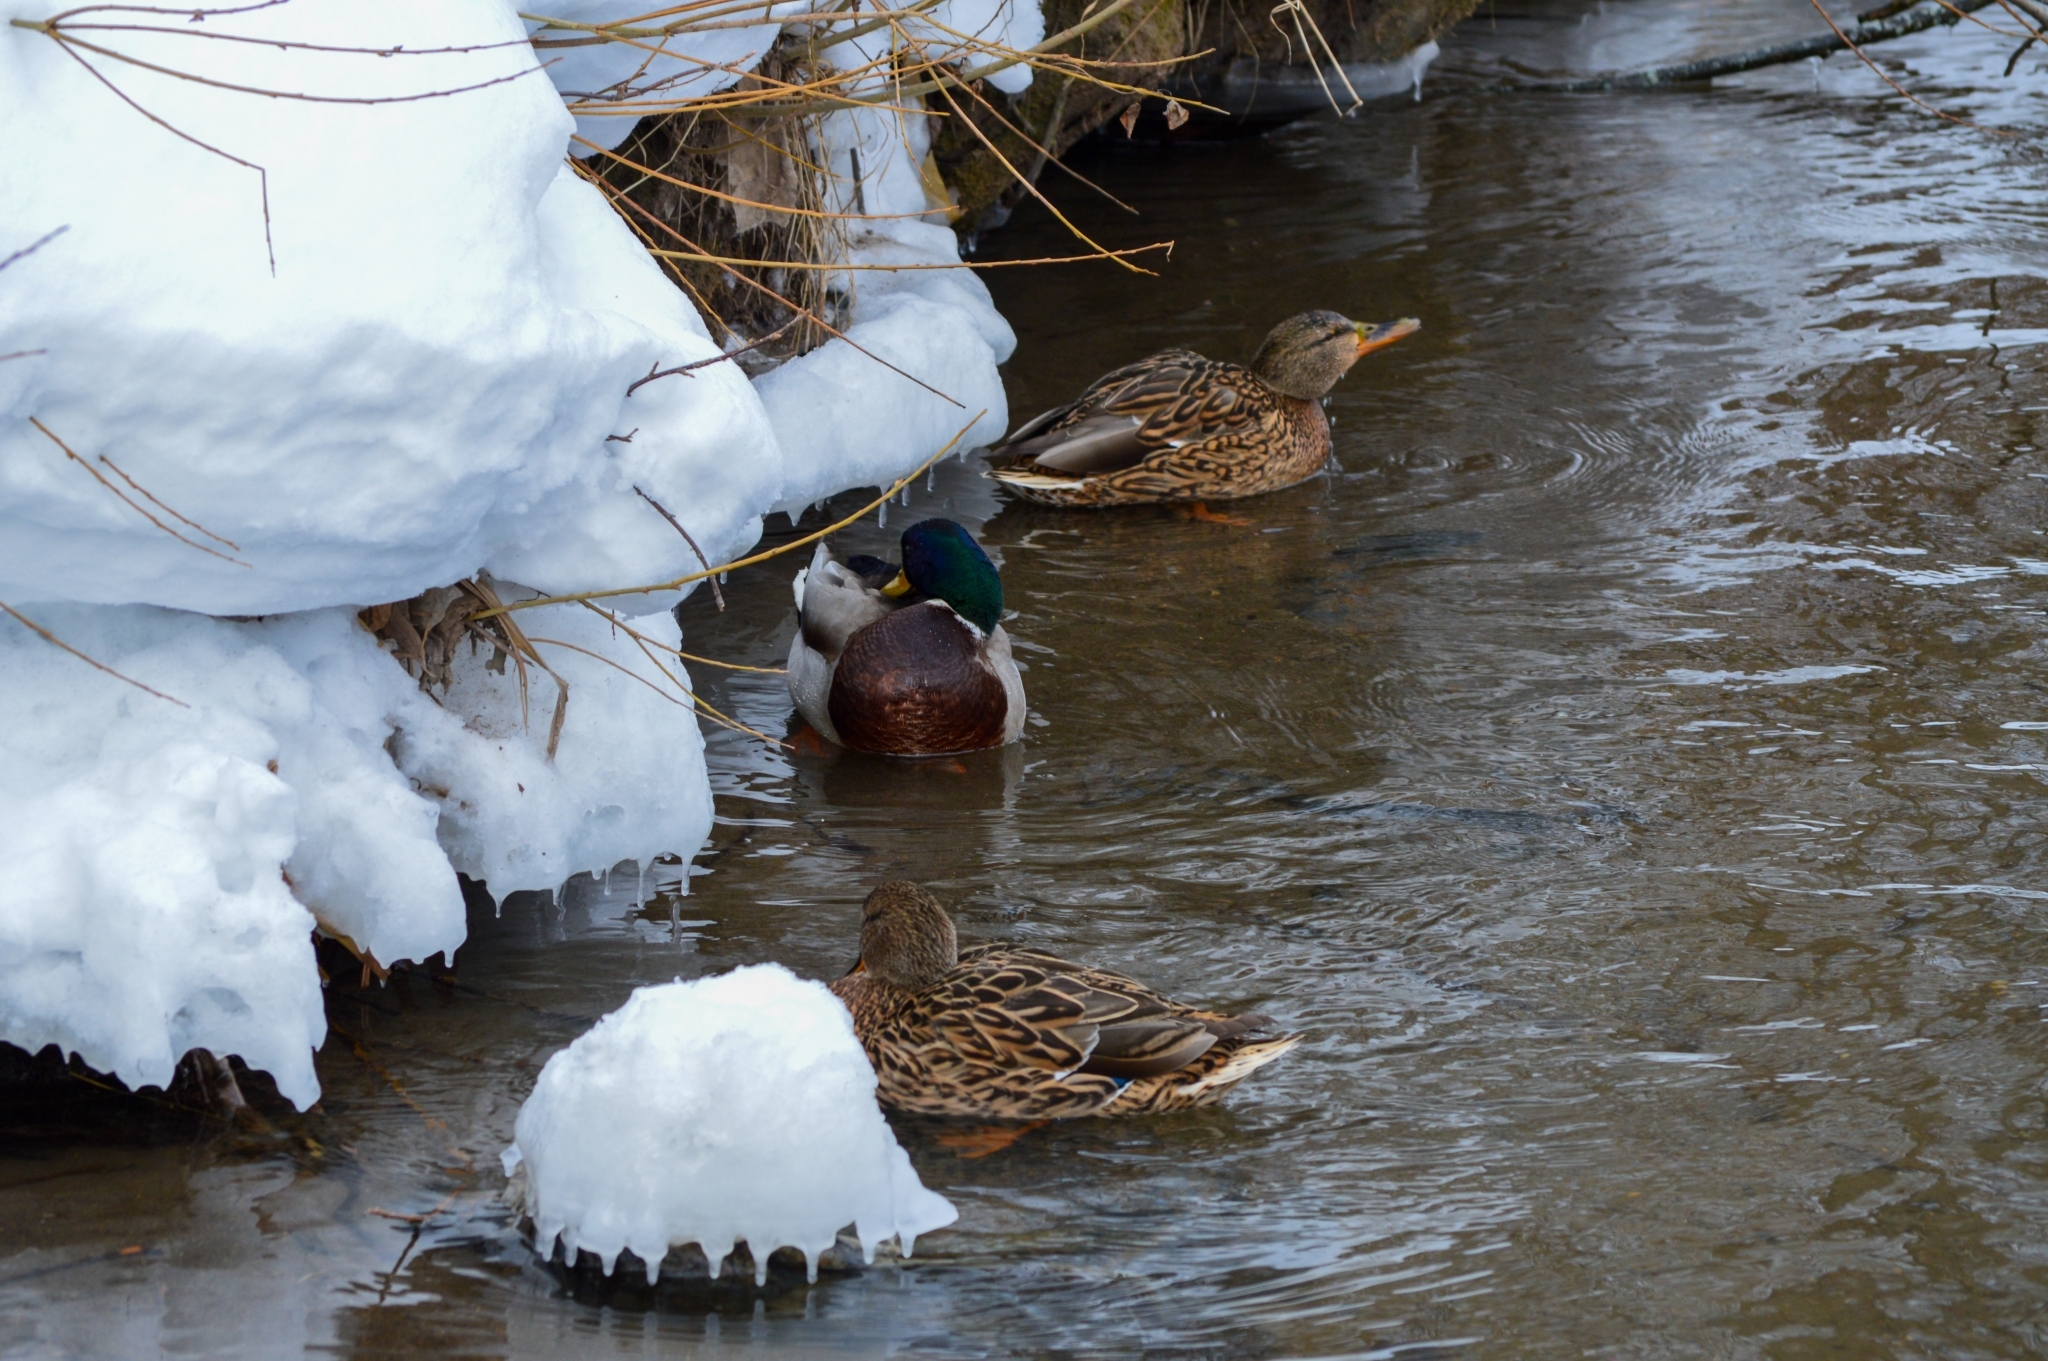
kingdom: Animalia
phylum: Chordata
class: Aves
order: Anseriformes
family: Anatidae
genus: Anas
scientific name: Anas platyrhynchos
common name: Mallard
